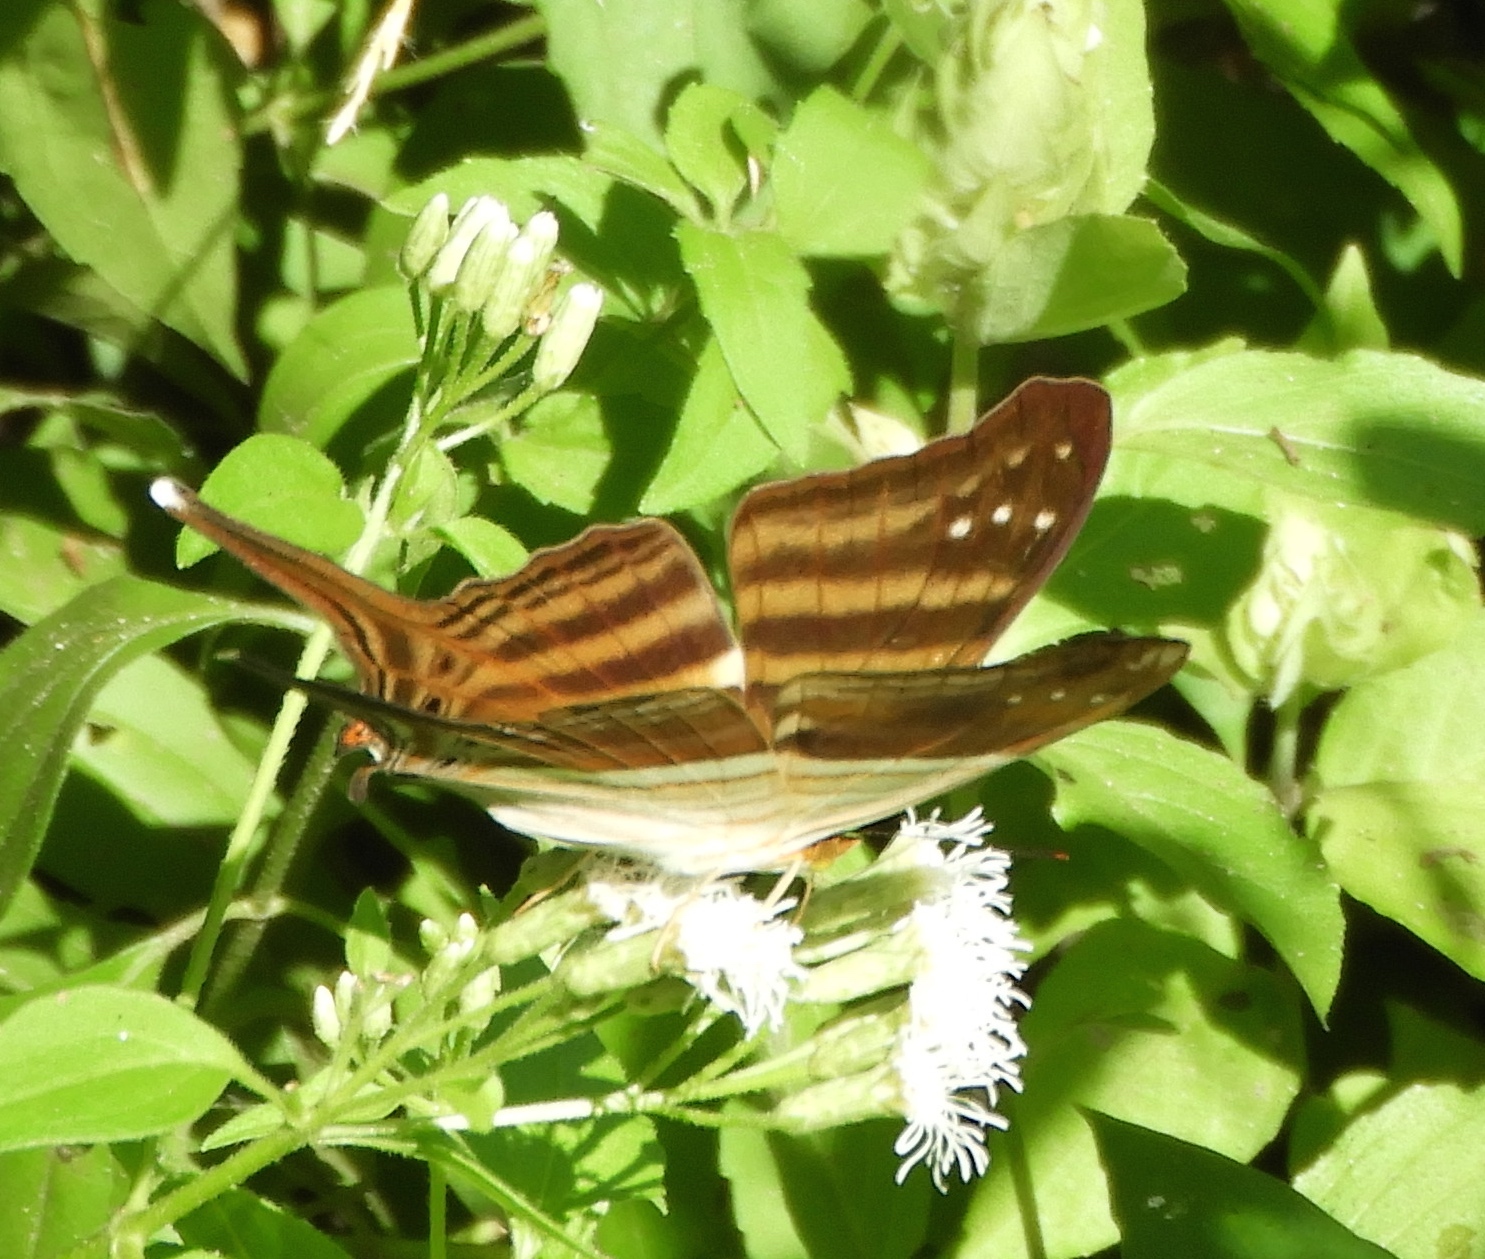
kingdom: Animalia
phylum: Arthropoda
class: Insecta
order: Lepidoptera
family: Nymphalidae
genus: Marpesia
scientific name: Marpesia chiron
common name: Many-banded daggerwing
